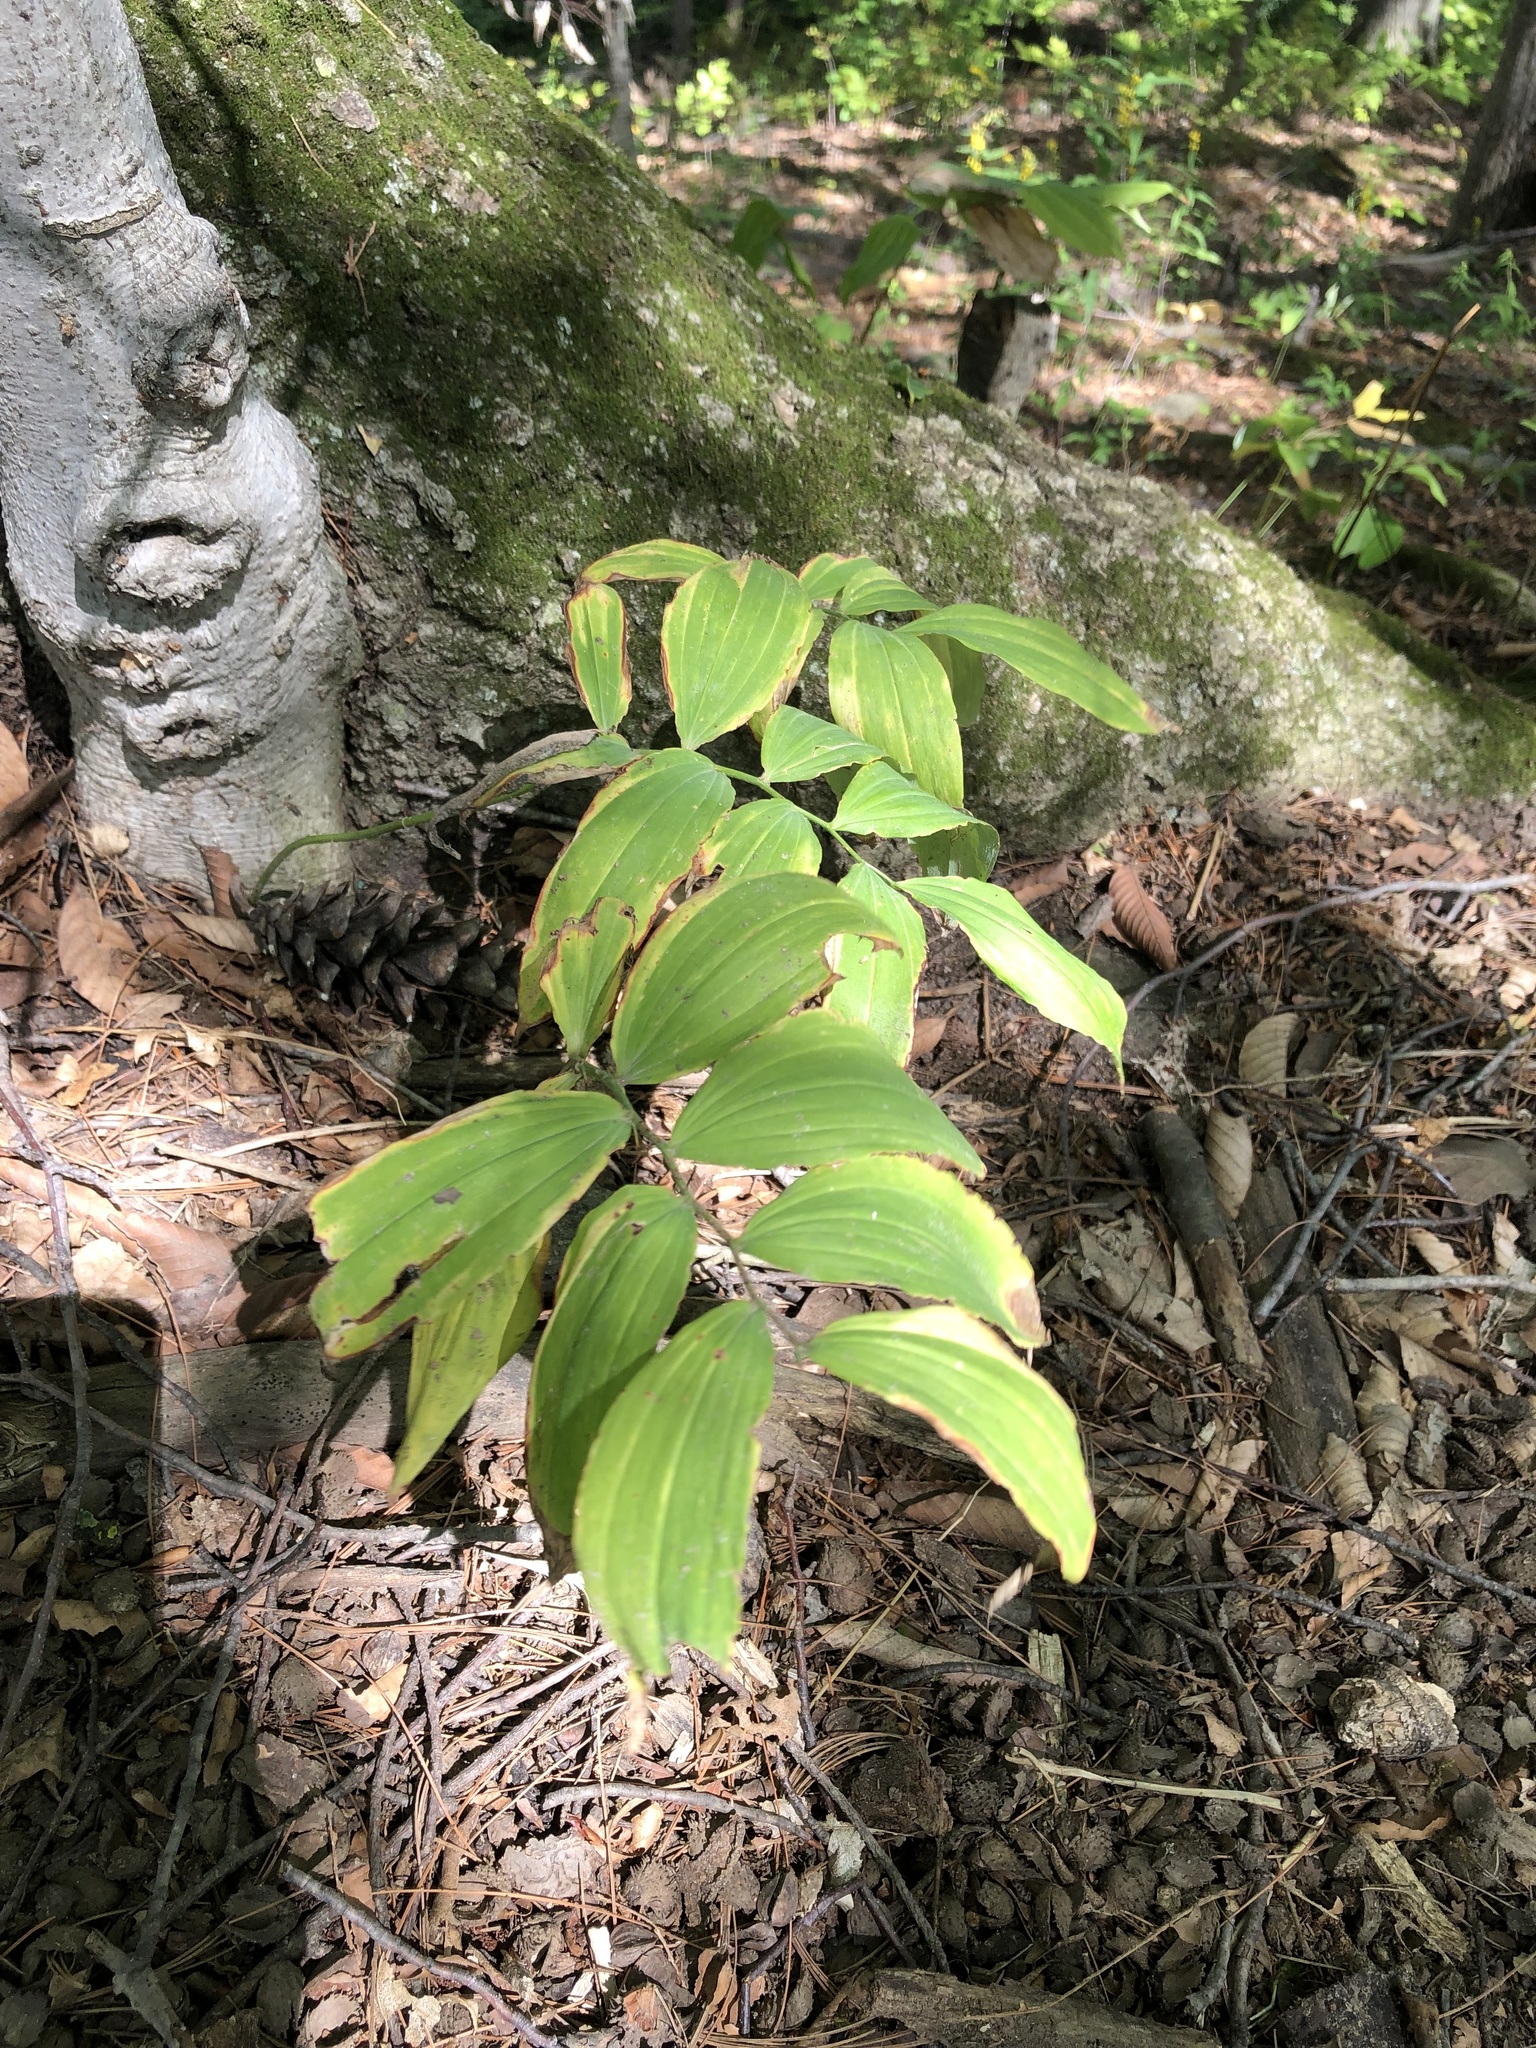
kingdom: Plantae
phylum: Tracheophyta
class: Liliopsida
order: Asparagales
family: Asparagaceae
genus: Polygonatum
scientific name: Polygonatum pubescens
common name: Downy solomon's seal
